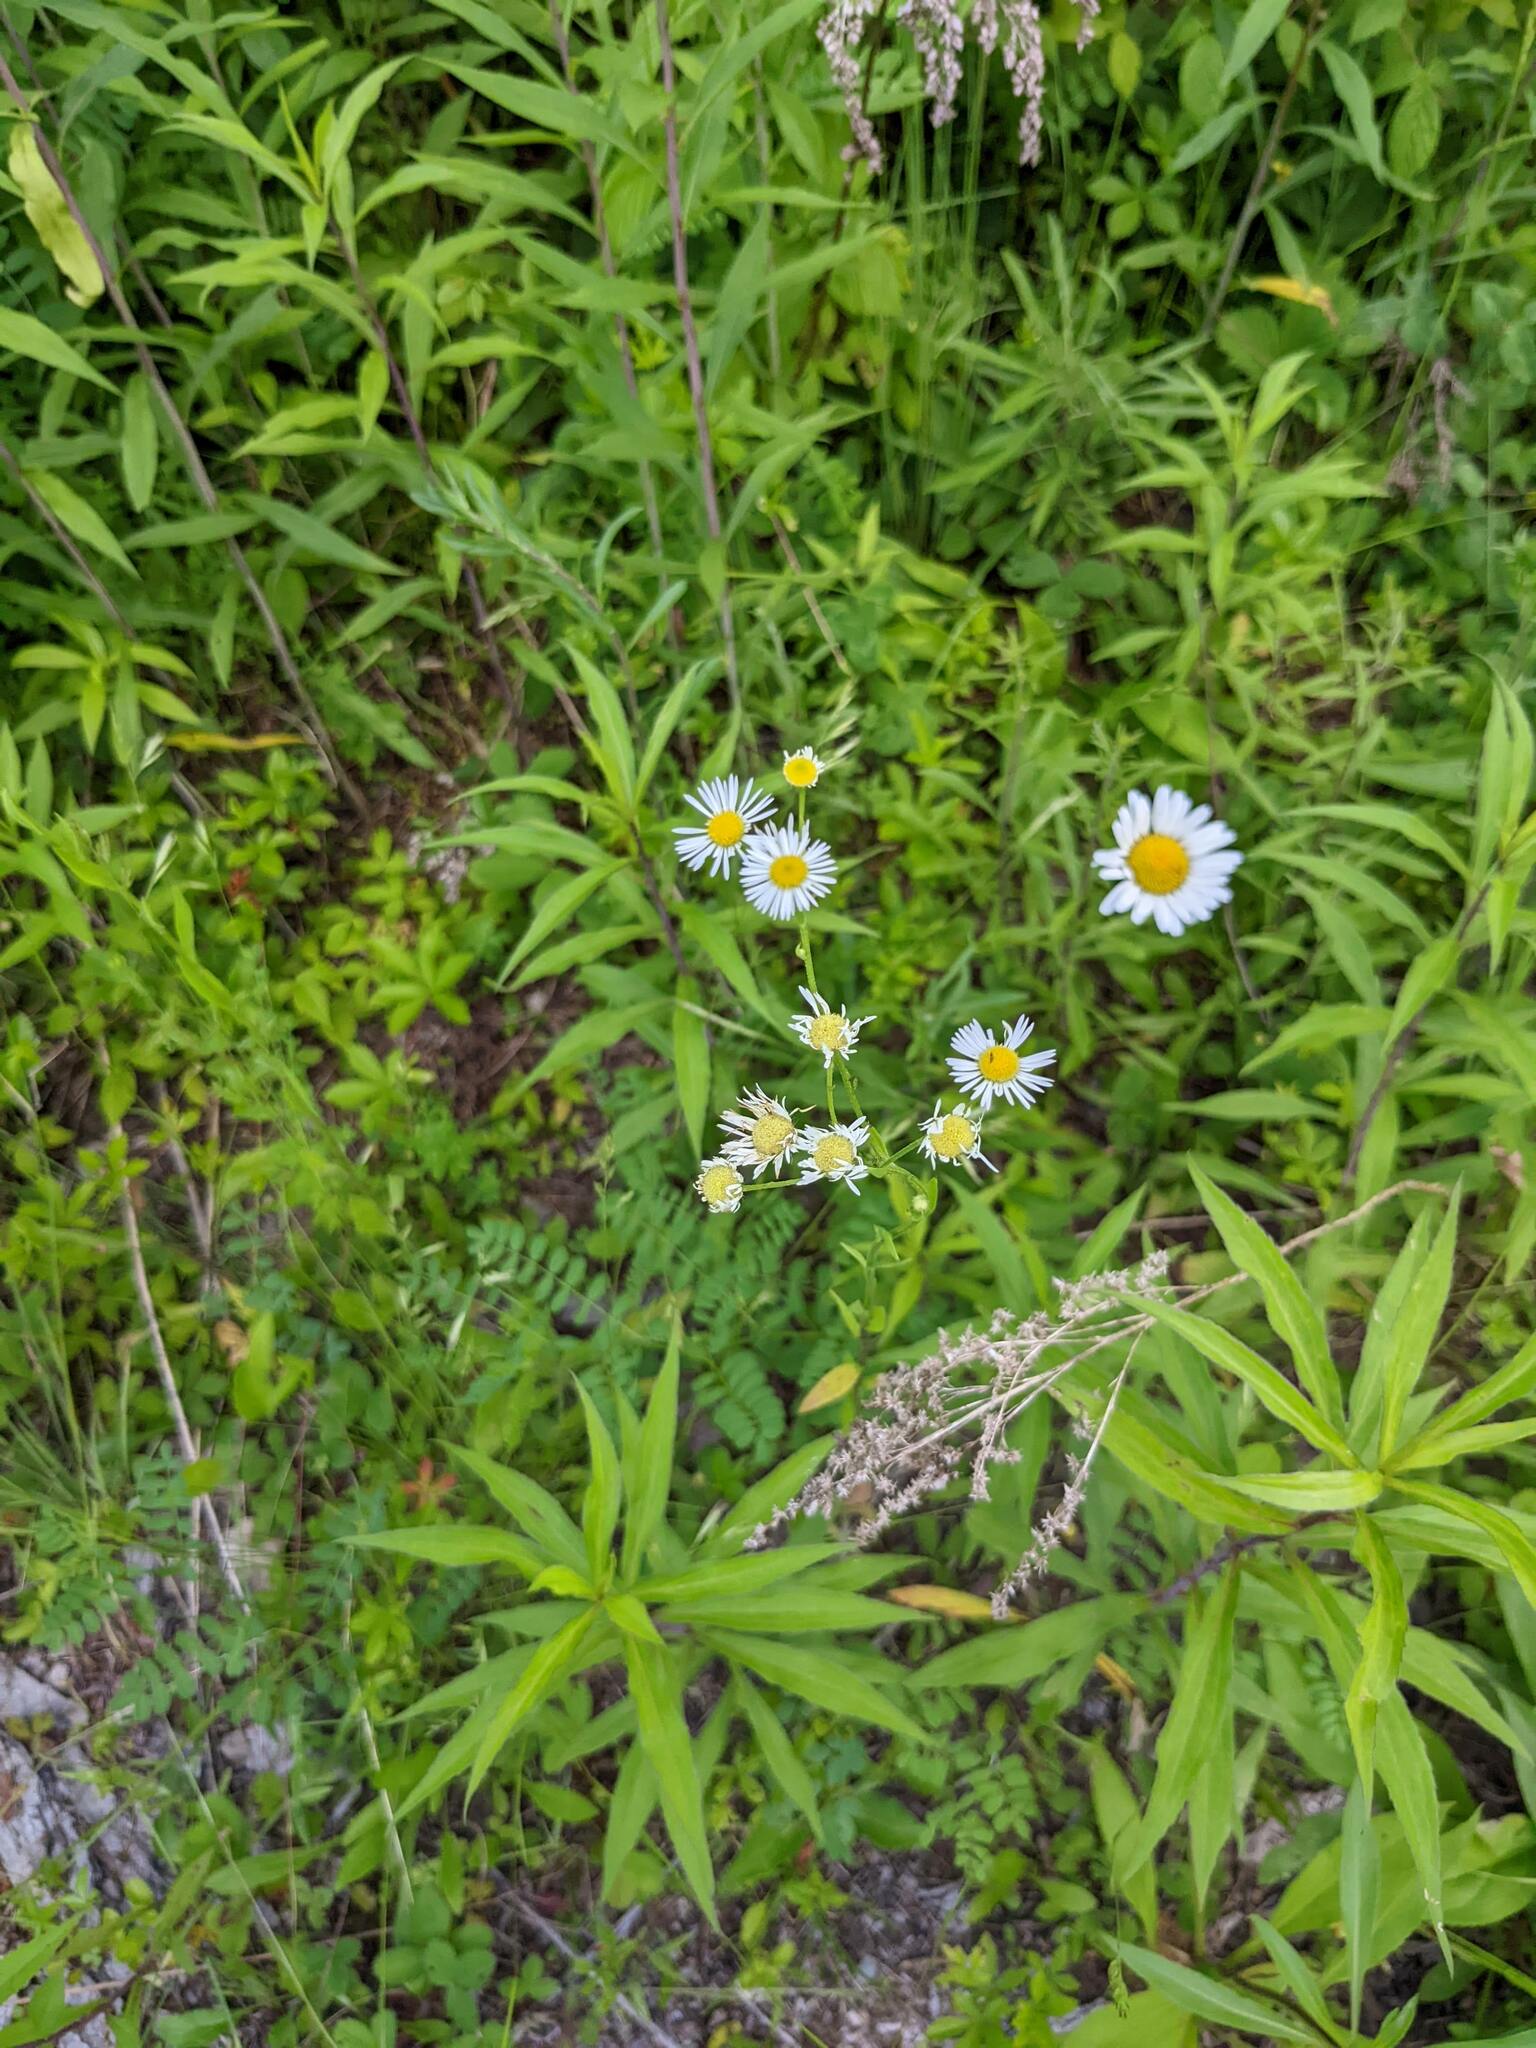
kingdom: Plantae
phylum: Tracheophyta
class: Magnoliopsida
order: Asterales
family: Asteraceae
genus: Erigeron
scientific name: Erigeron strigosus
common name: Common eastern fleabane
